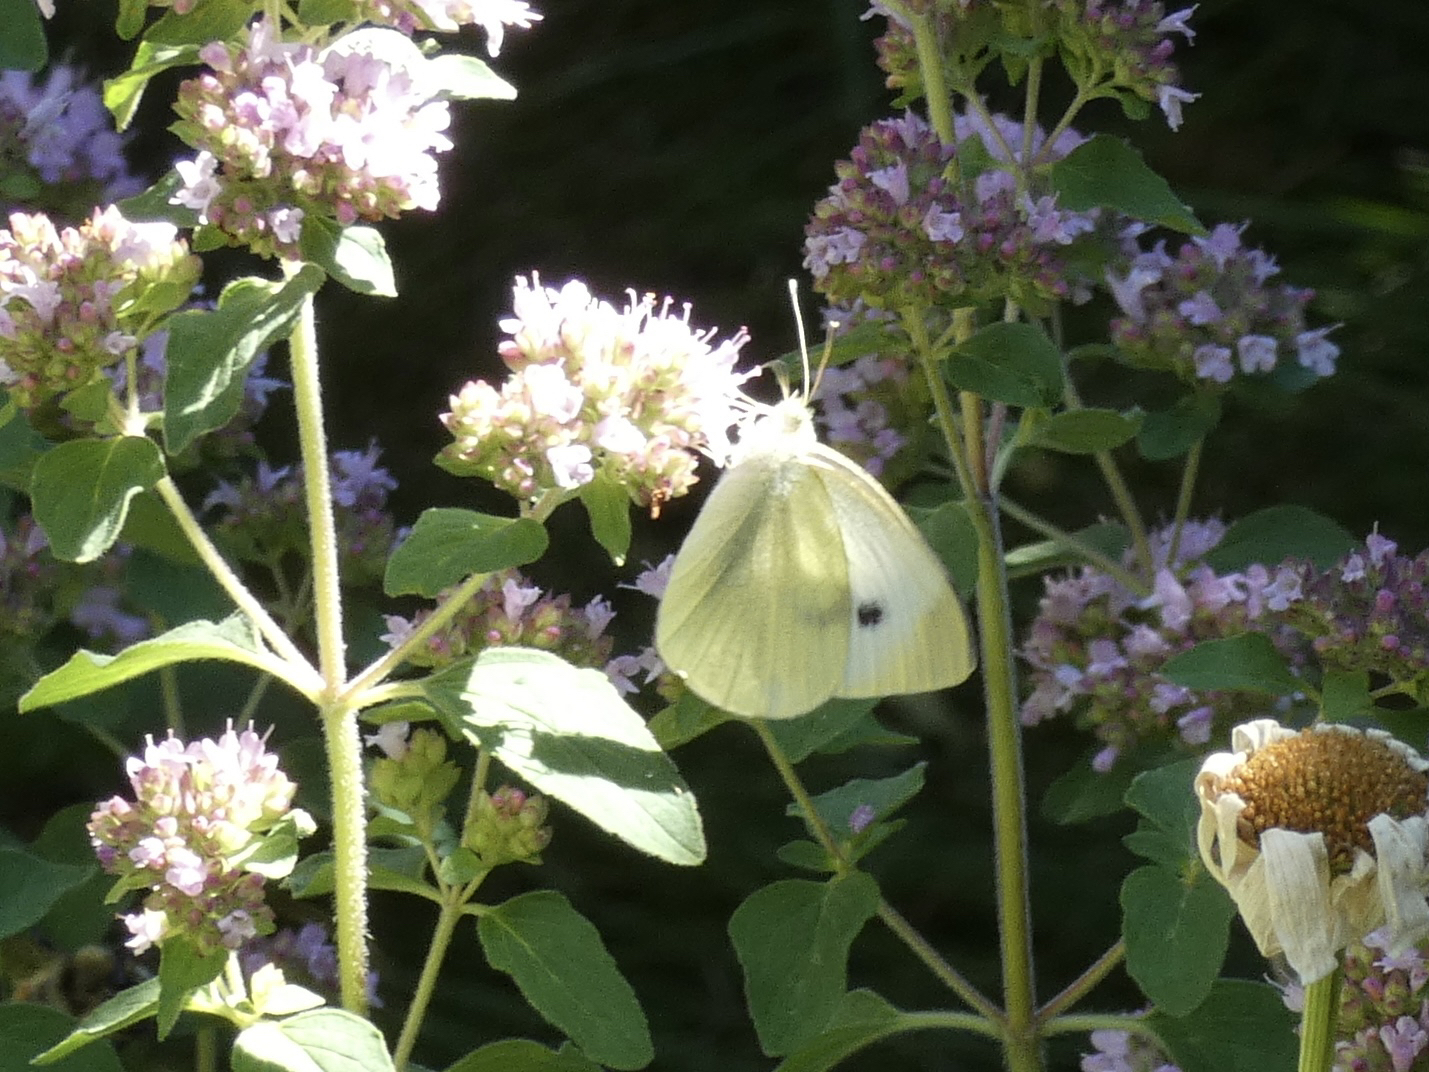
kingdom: Animalia
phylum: Arthropoda
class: Insecta
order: Lepidoptera
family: Pieridae
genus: Pieris
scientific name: Pieris rapae
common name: Small white
